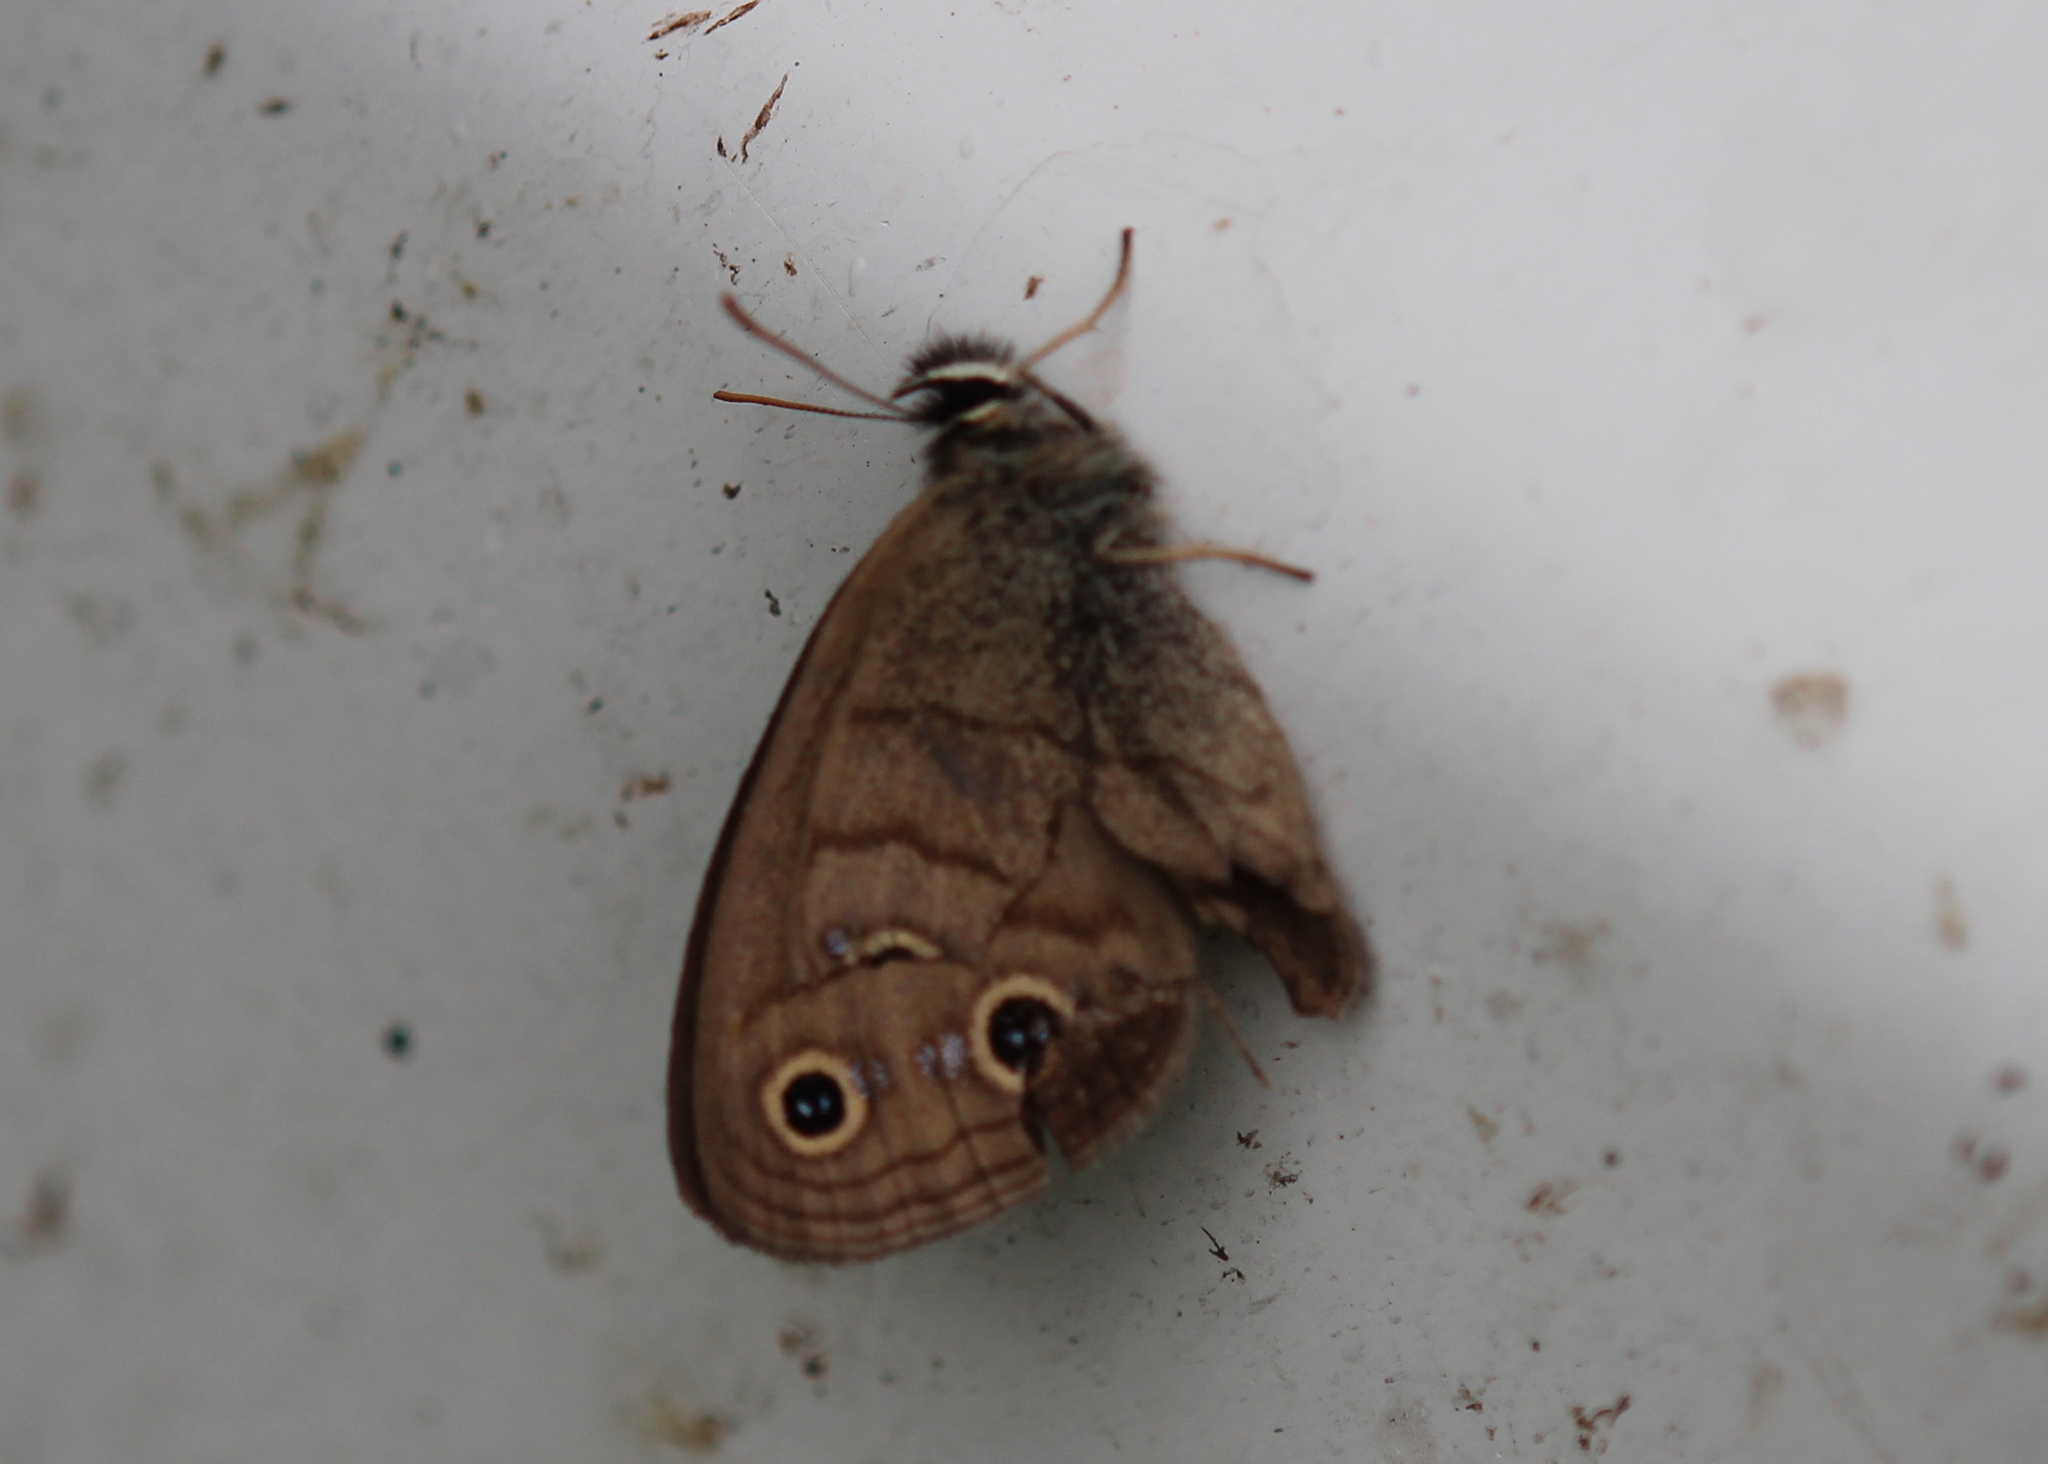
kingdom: Animalia
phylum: Arthropoda
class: Insecta
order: Lepidoptera
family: Nymphalidae
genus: Euptychia
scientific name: Euptychia cymela
